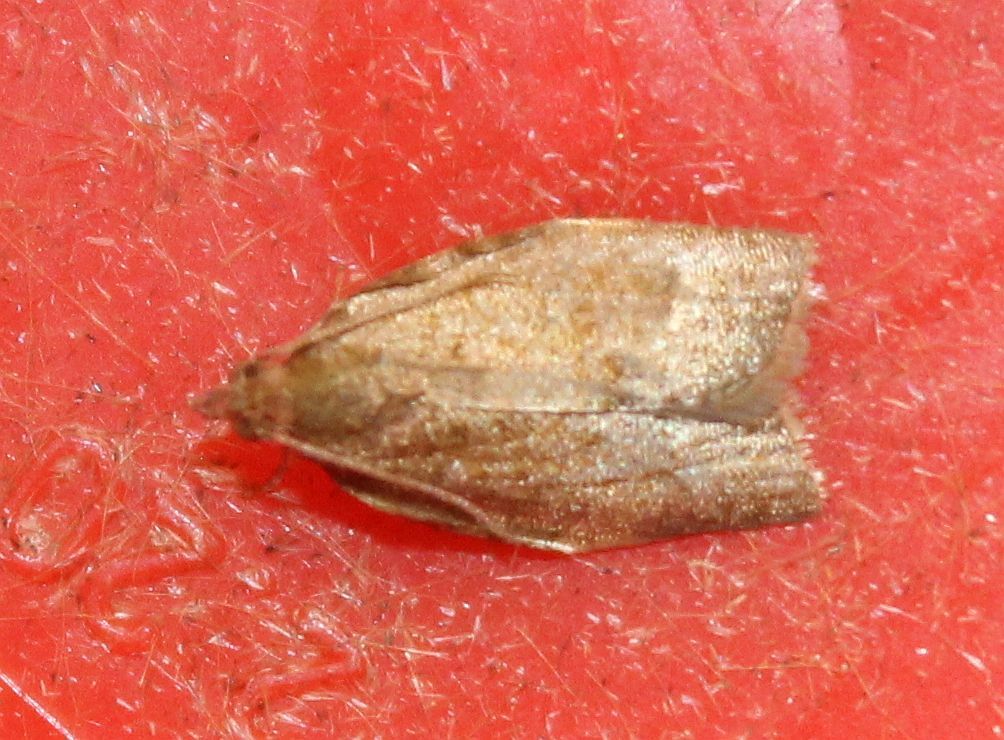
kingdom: Animalia
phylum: Arthropoda
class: Insecta
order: Lepidoptera
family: Tortricidae
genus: Clepsis
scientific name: Clepsis consimilana
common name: Privet tortrix
